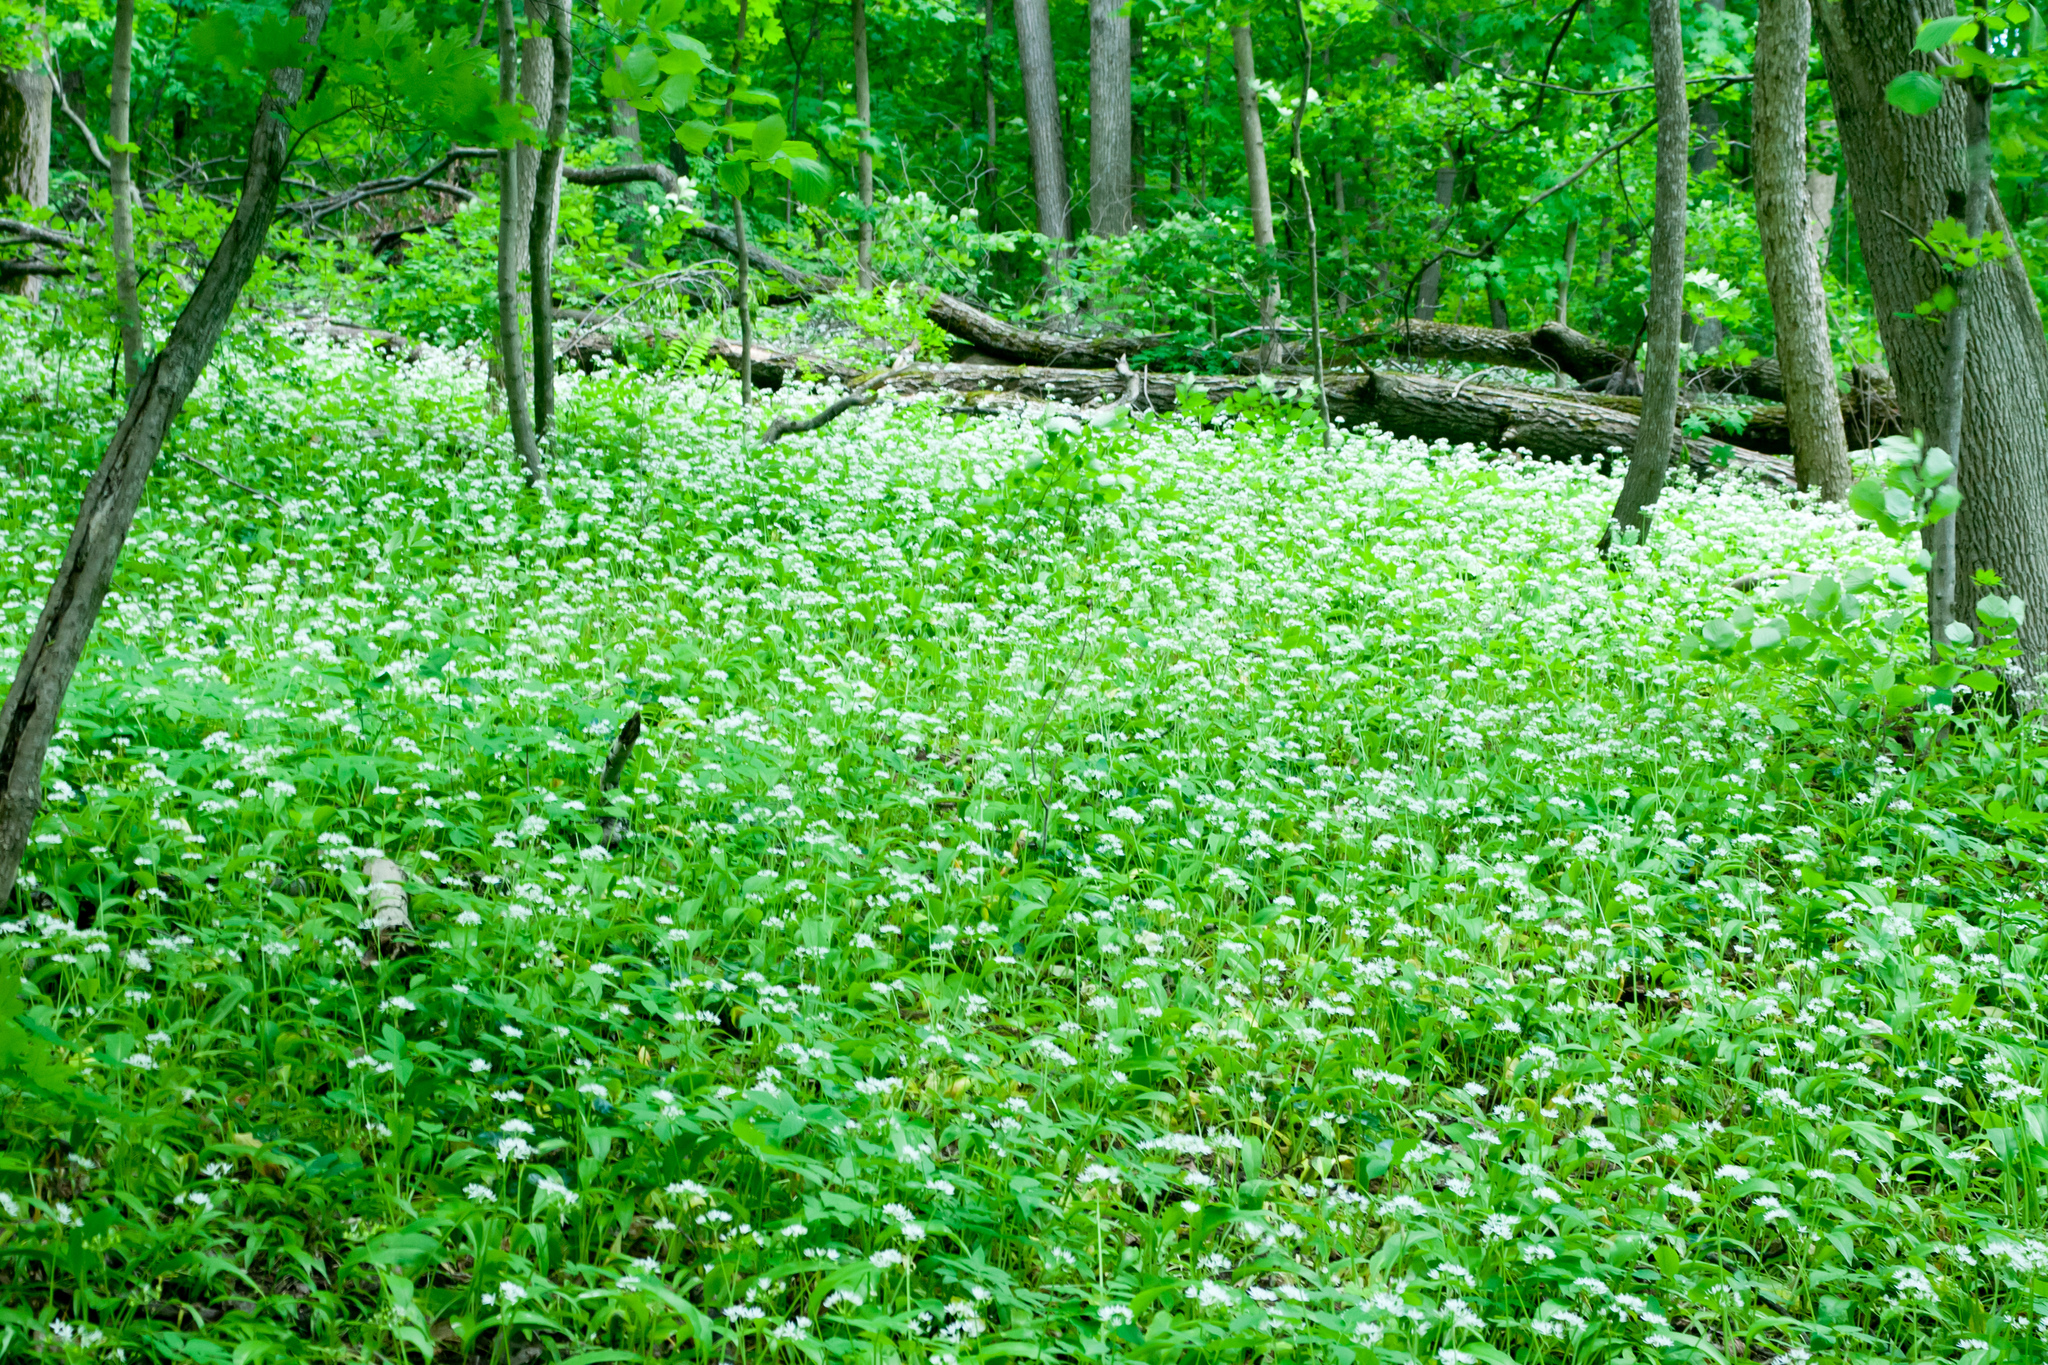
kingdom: Plantae
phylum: Tracheophyta
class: Liliopsida
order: Asparagales
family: Amaryllidaceae
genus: Allium
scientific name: Allium ursinum
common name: Ramsons
